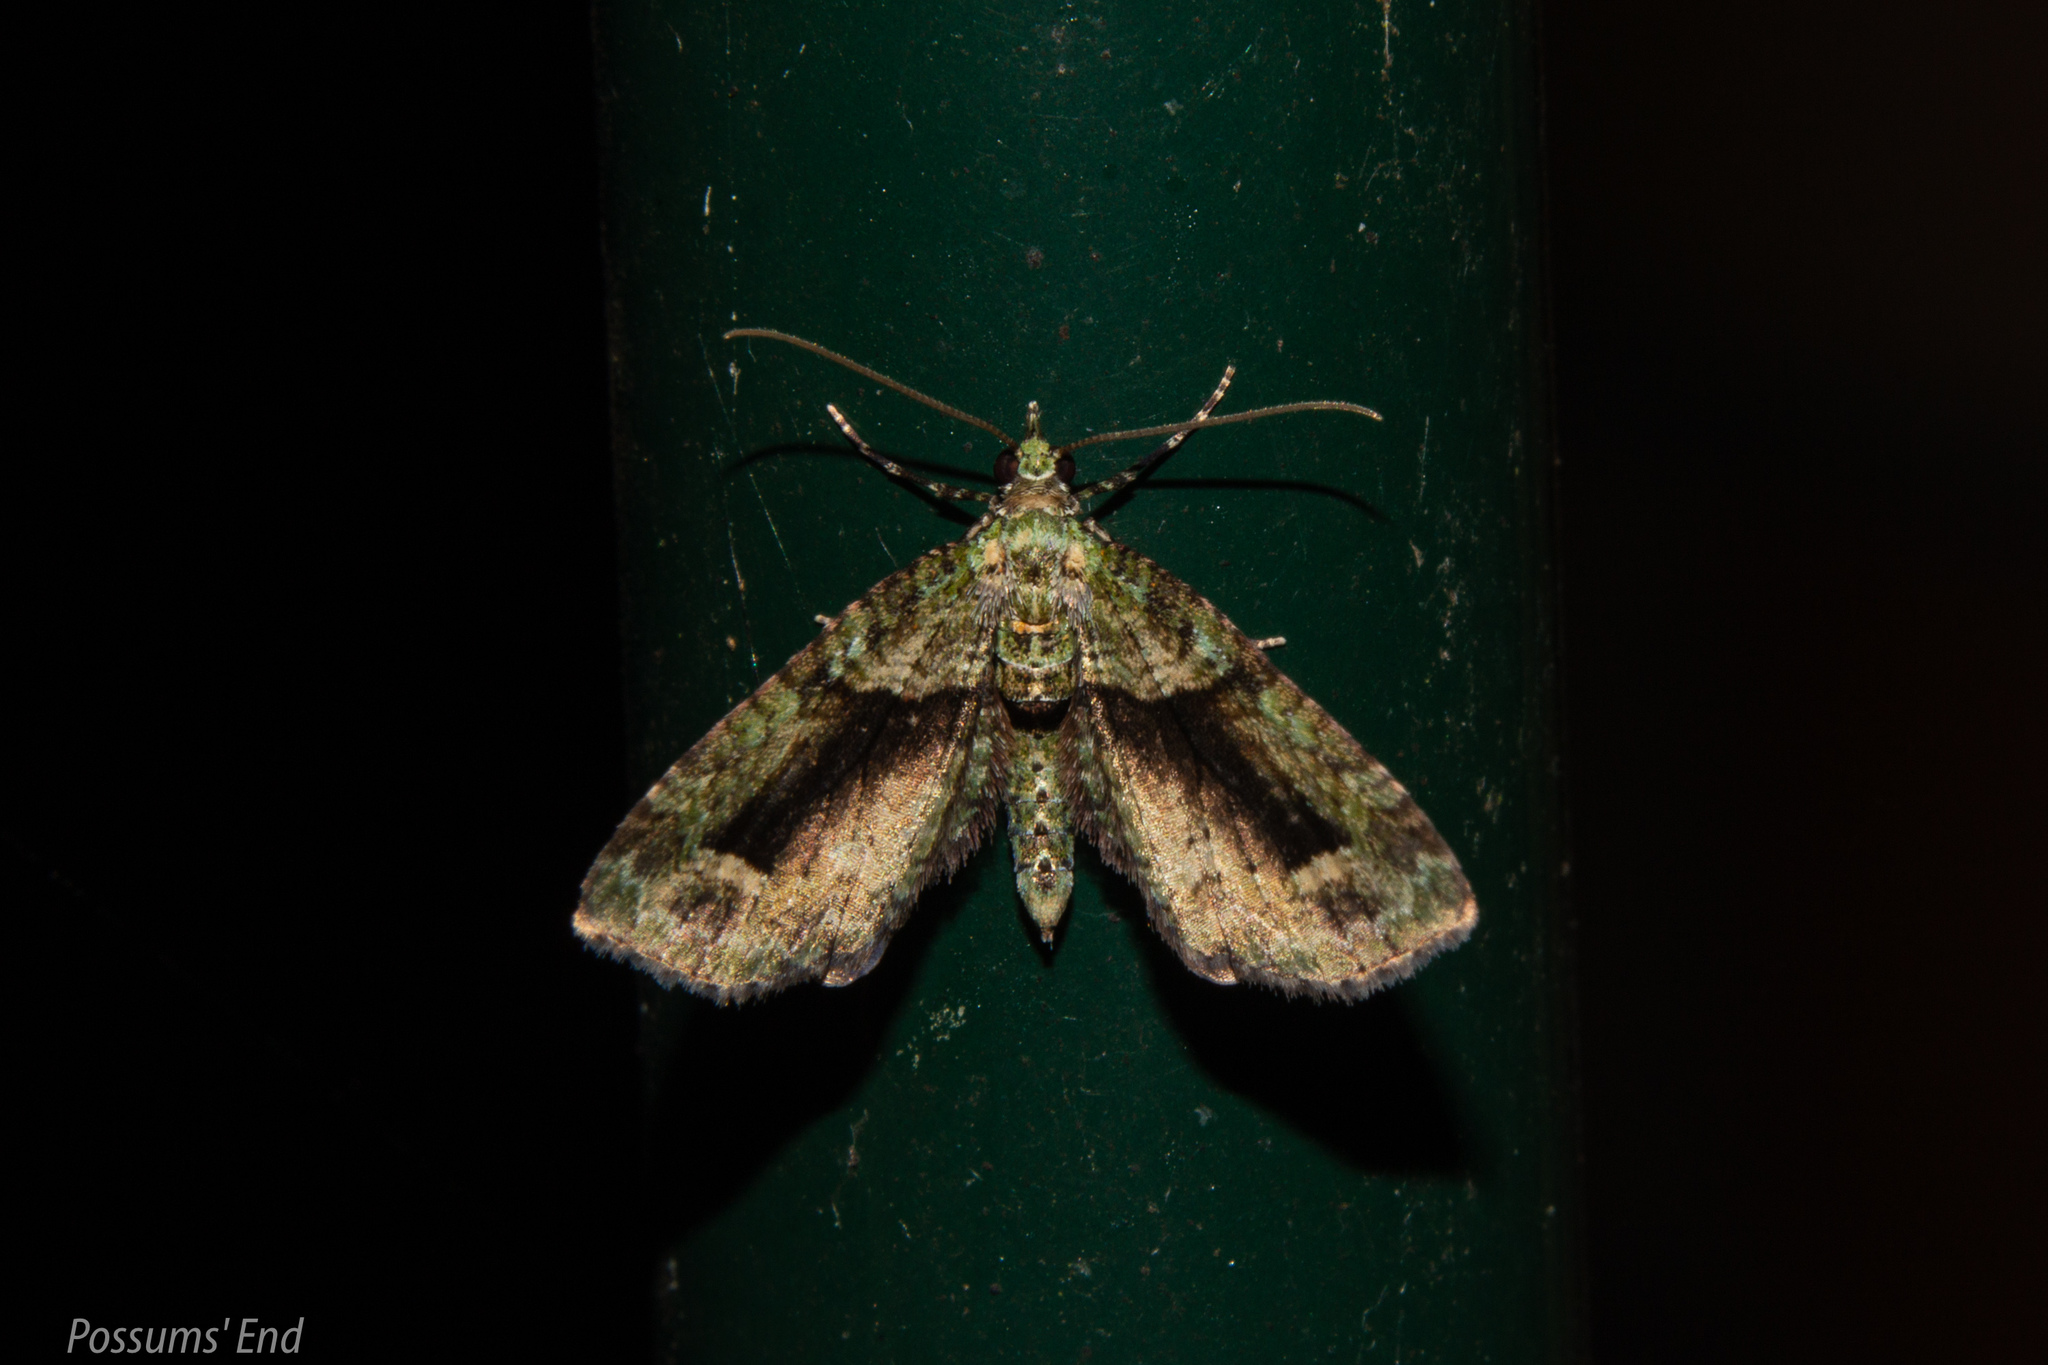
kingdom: Animalia
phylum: Arthropoda
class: Insecta
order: Lepidoptera
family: Geometridae
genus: Pasiphila
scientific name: Pasiphila suffusa
